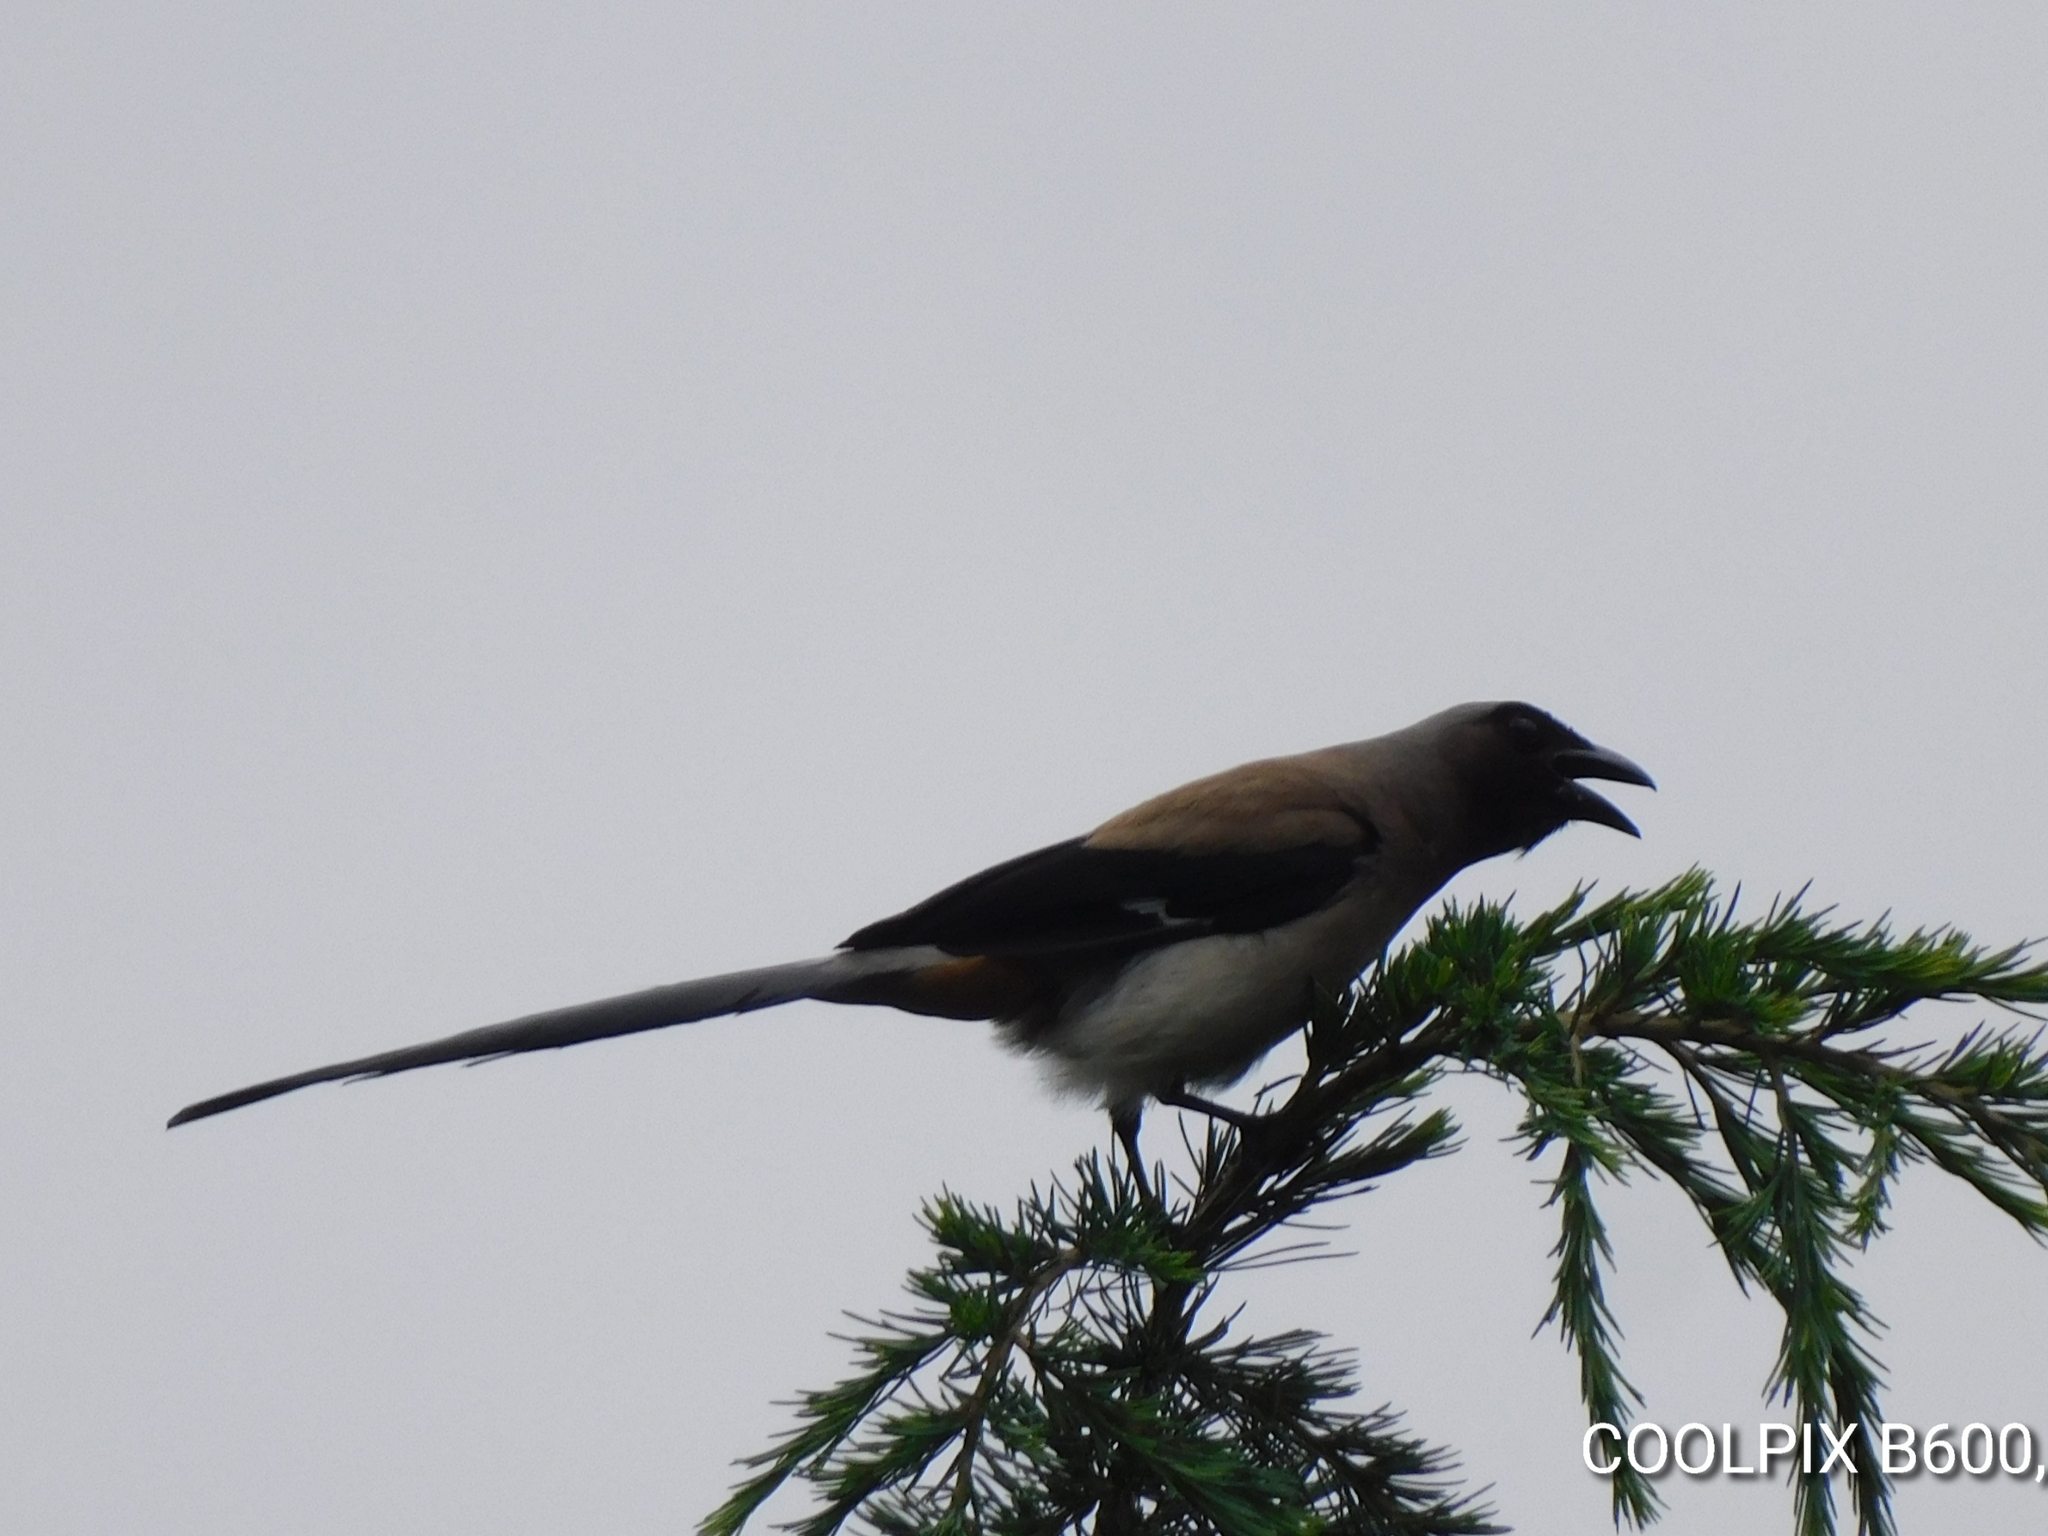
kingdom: Animalia
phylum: Chordata
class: Aves
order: Passeriformes
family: Corvidae
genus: Dendrocitta
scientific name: Dendrocitta formosae
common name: Grey treepie
